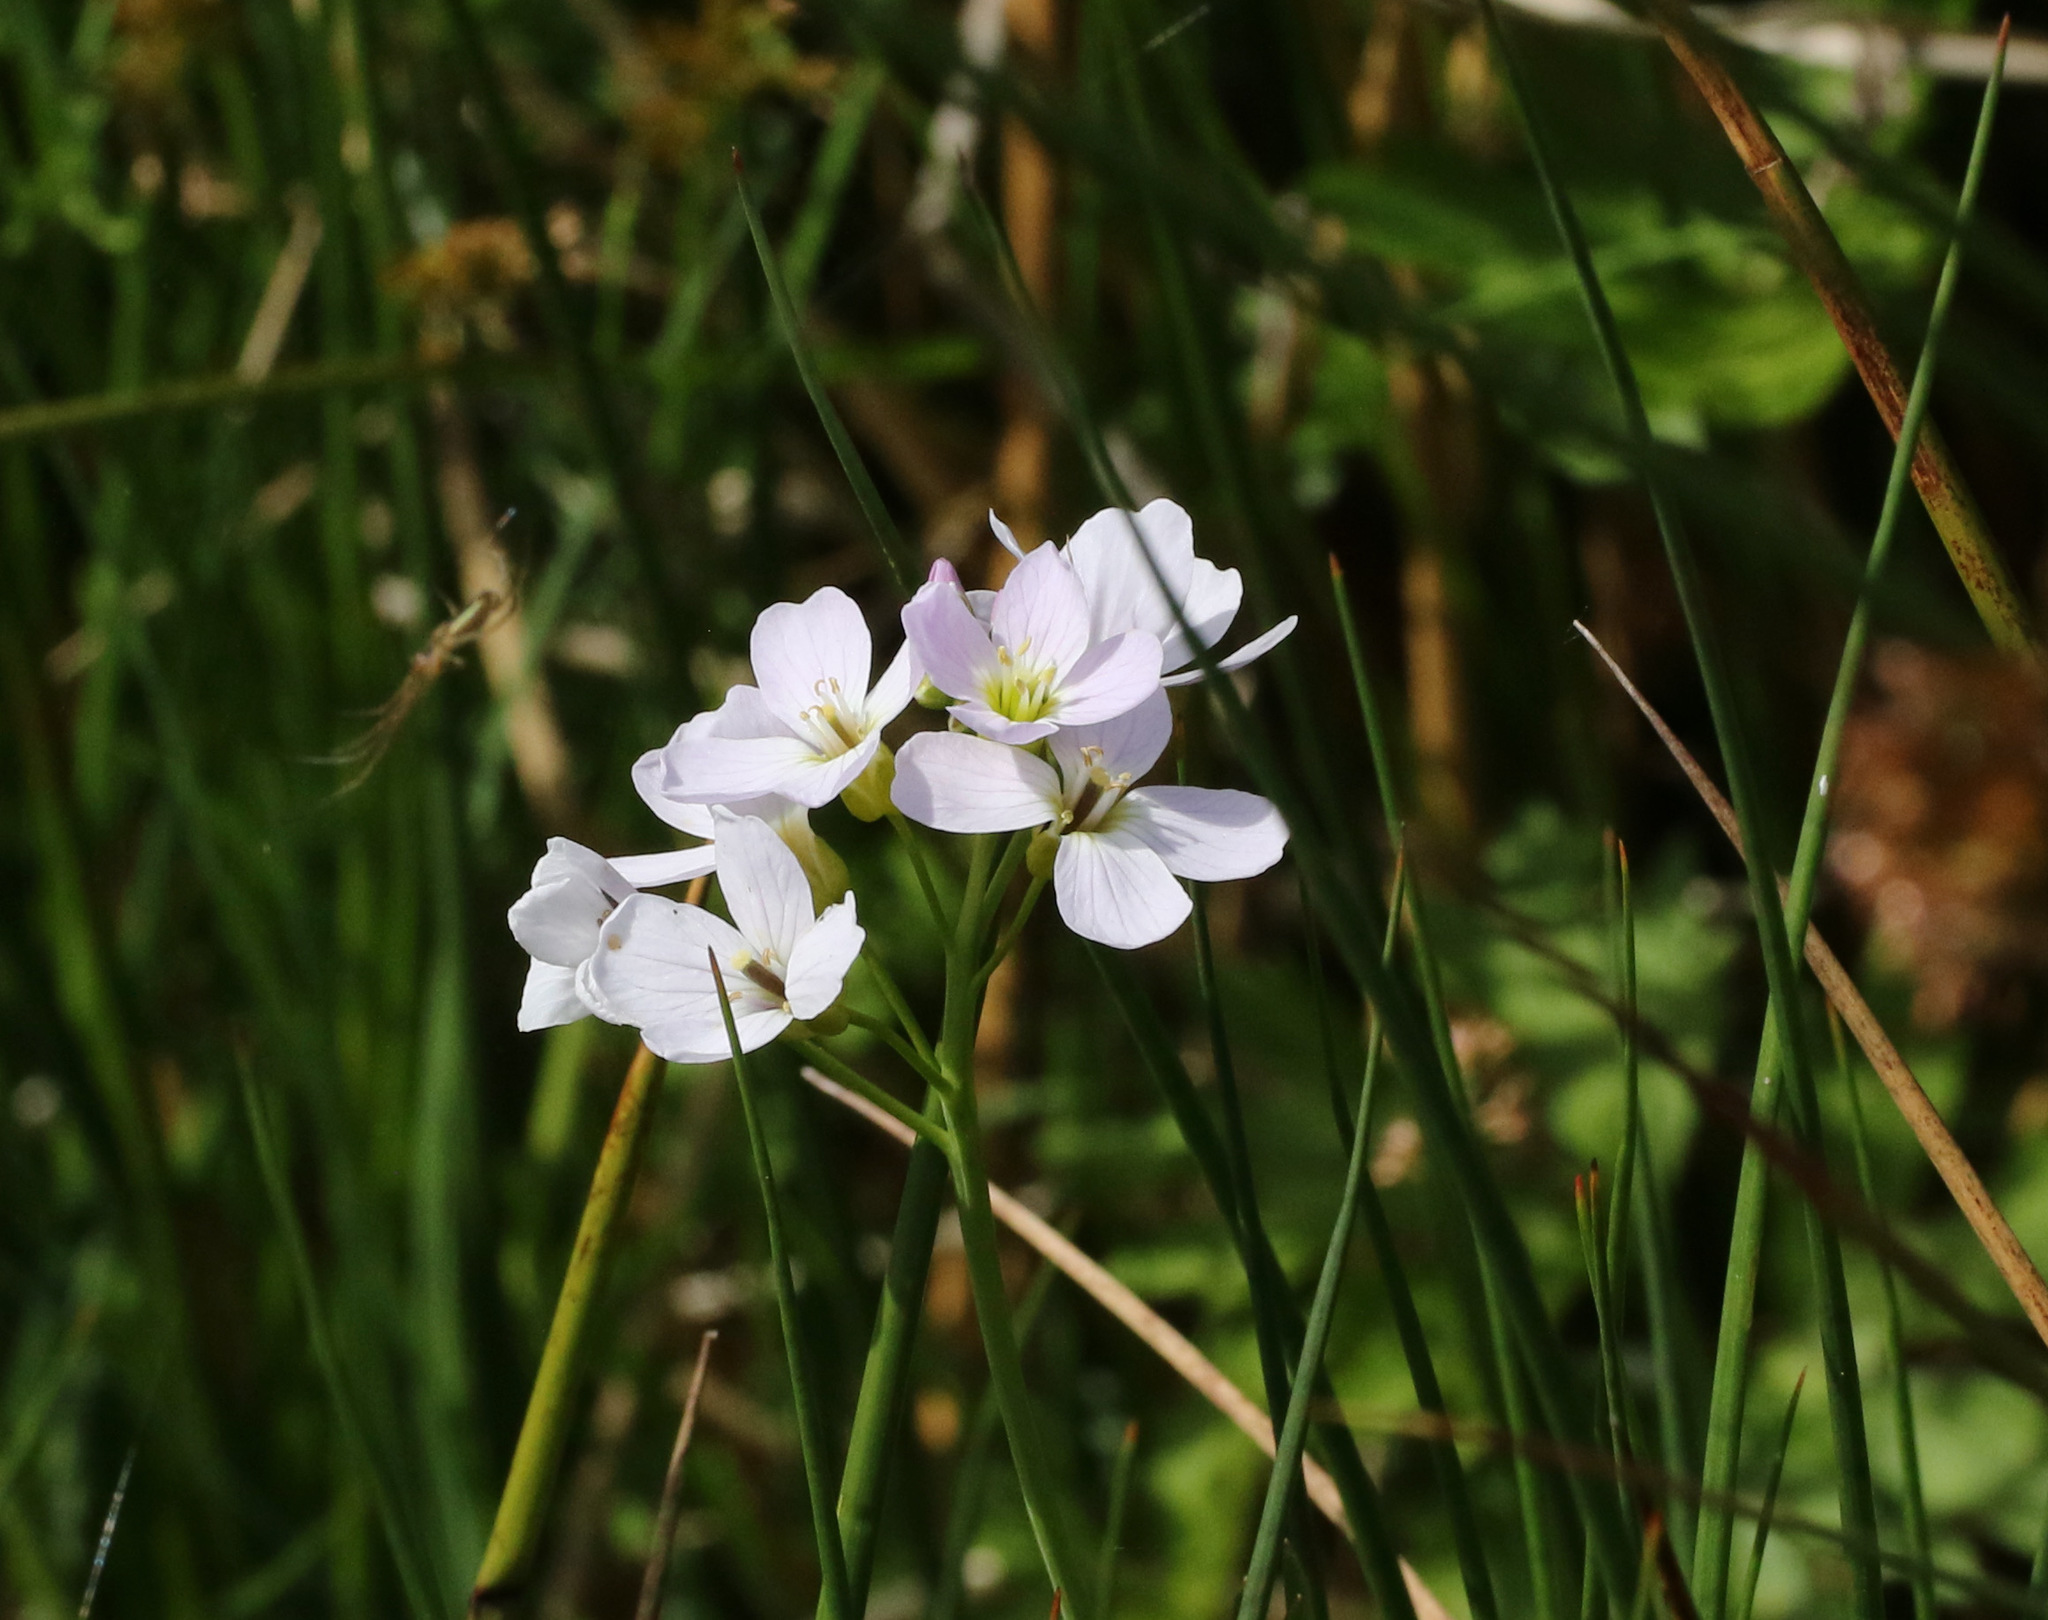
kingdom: Plantae
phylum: Tracheophyta
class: Magnoliopsida
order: Brassicales
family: Brassicaceae
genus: Cardamine
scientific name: Cardamine pratensis
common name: Cuckoo flower
